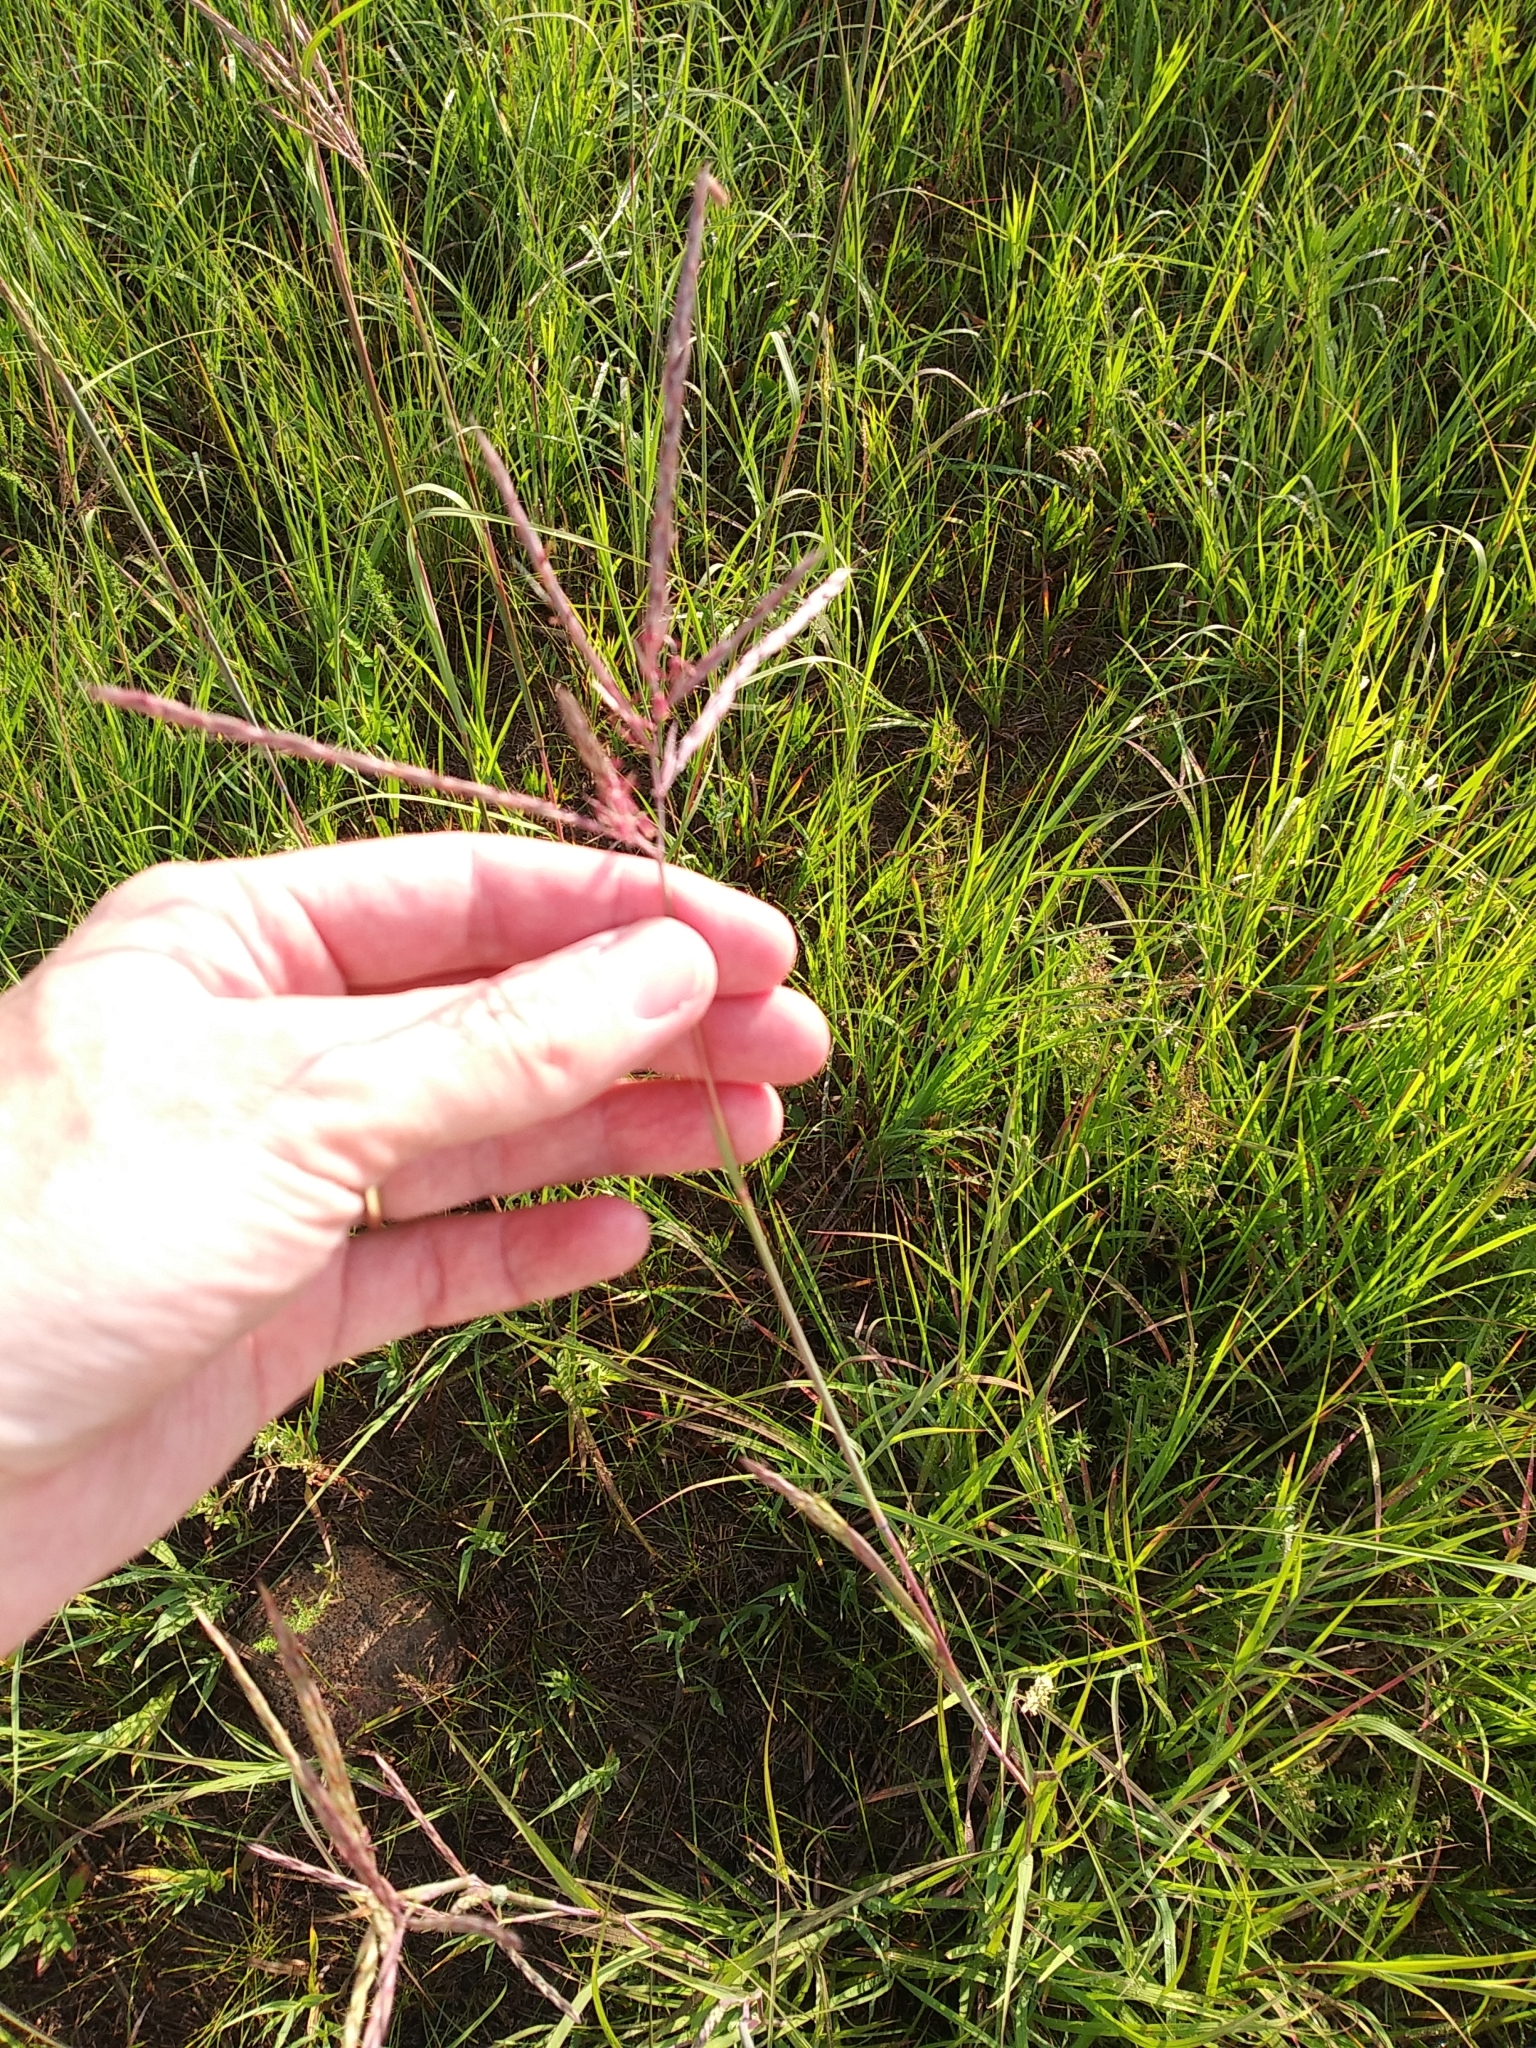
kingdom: Plantae
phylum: Tracheophyta
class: Liliopsida
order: Poales
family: Poaceae
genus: Andropogon
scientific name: Andropogon gerardi
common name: Big bluestem
